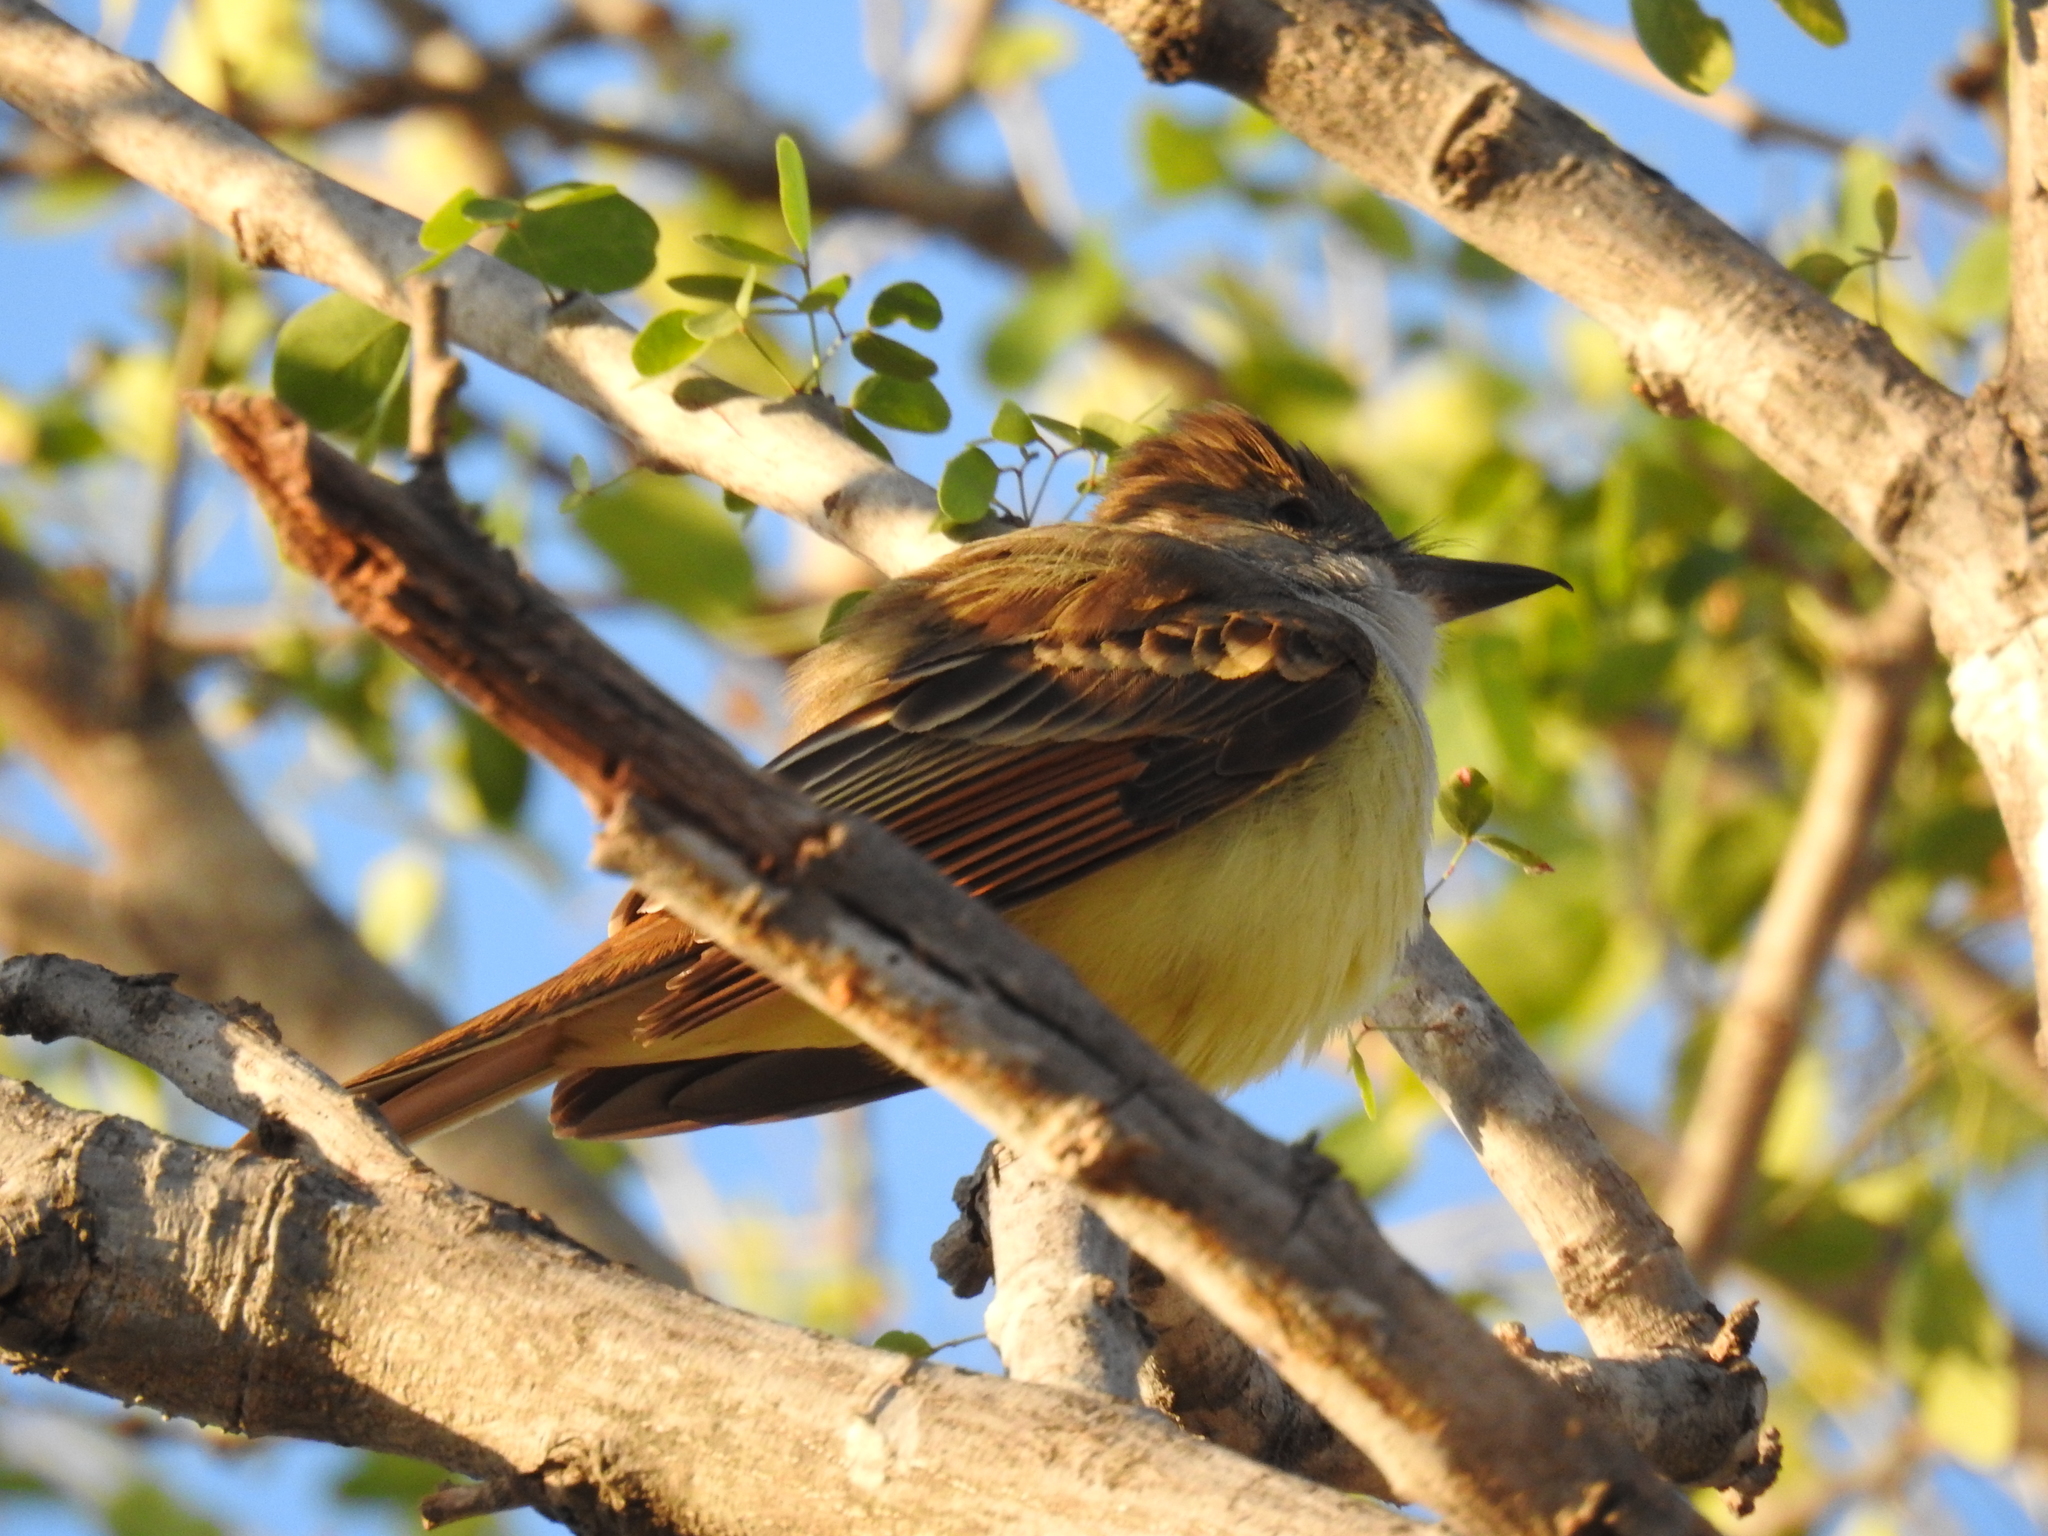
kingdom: Animalia
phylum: Chordata
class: Aves
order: Passeriformes
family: Tyrannidae
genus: Myiarchus
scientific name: Myiarchus tyrannulus
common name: Brown-crested flycatcher
